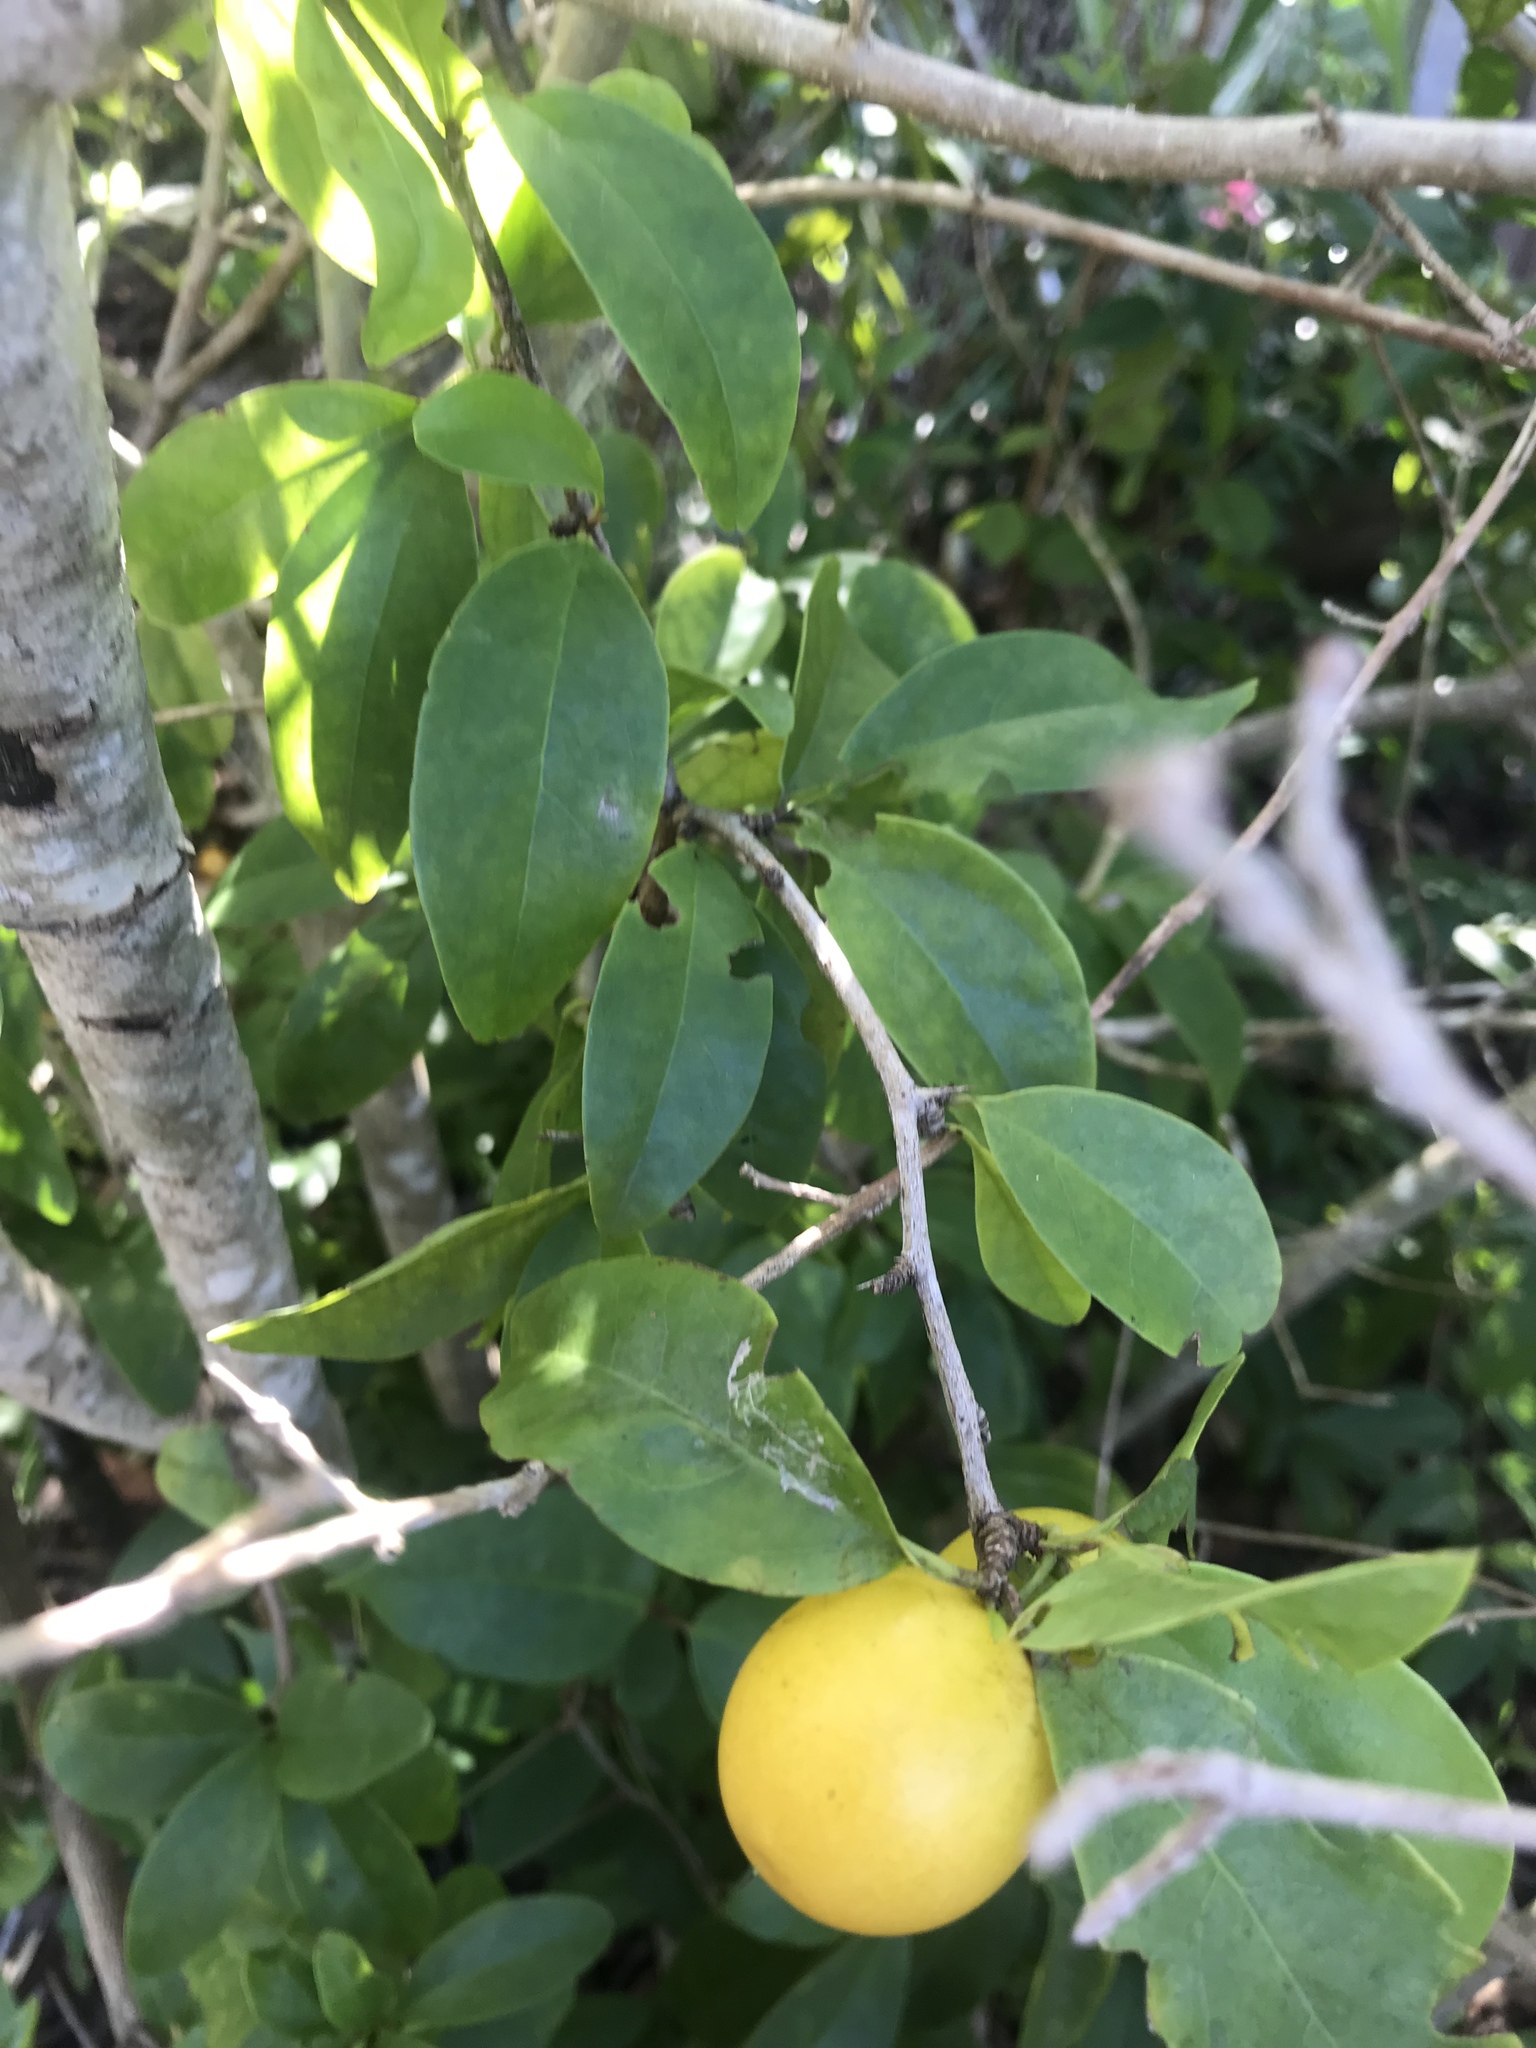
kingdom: Plantae
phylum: Tracheophyta
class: Magnoliopsida
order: Santalales
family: Ximeniaceae
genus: Ximenia
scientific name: Ximenia americana
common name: Tallowwood
